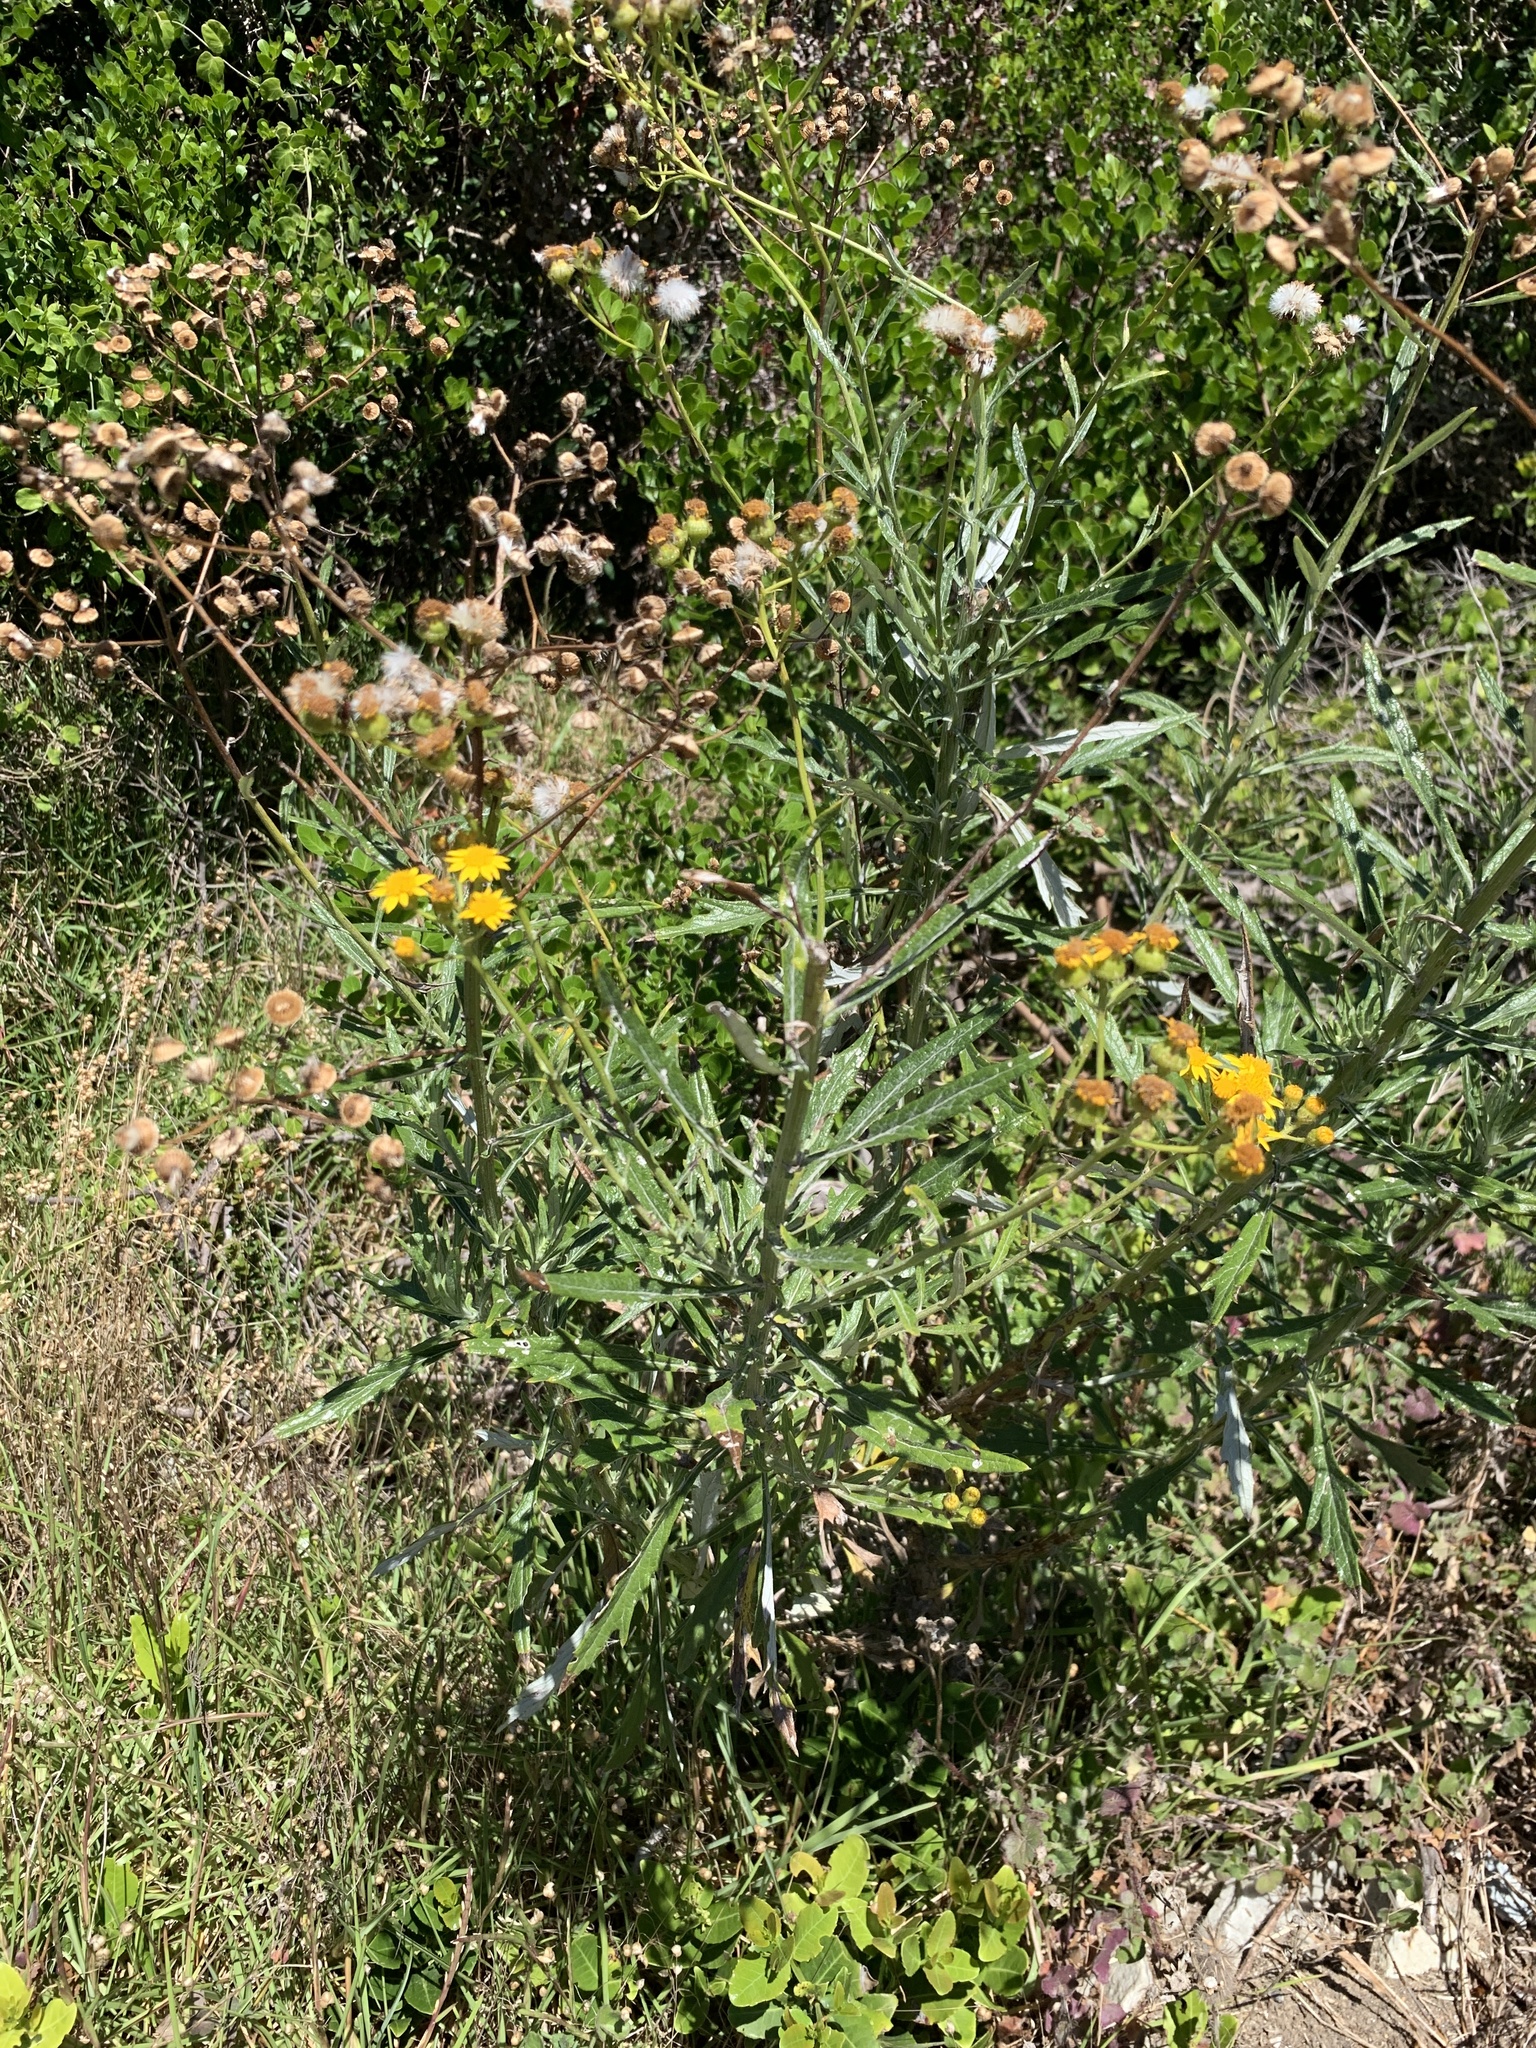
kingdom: Plantae
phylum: Tracheophyta
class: Magnoliopsida
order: Asterales
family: Asteraceae
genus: Senecio
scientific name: Senecio pterophorus
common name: Shoddy ragwort
